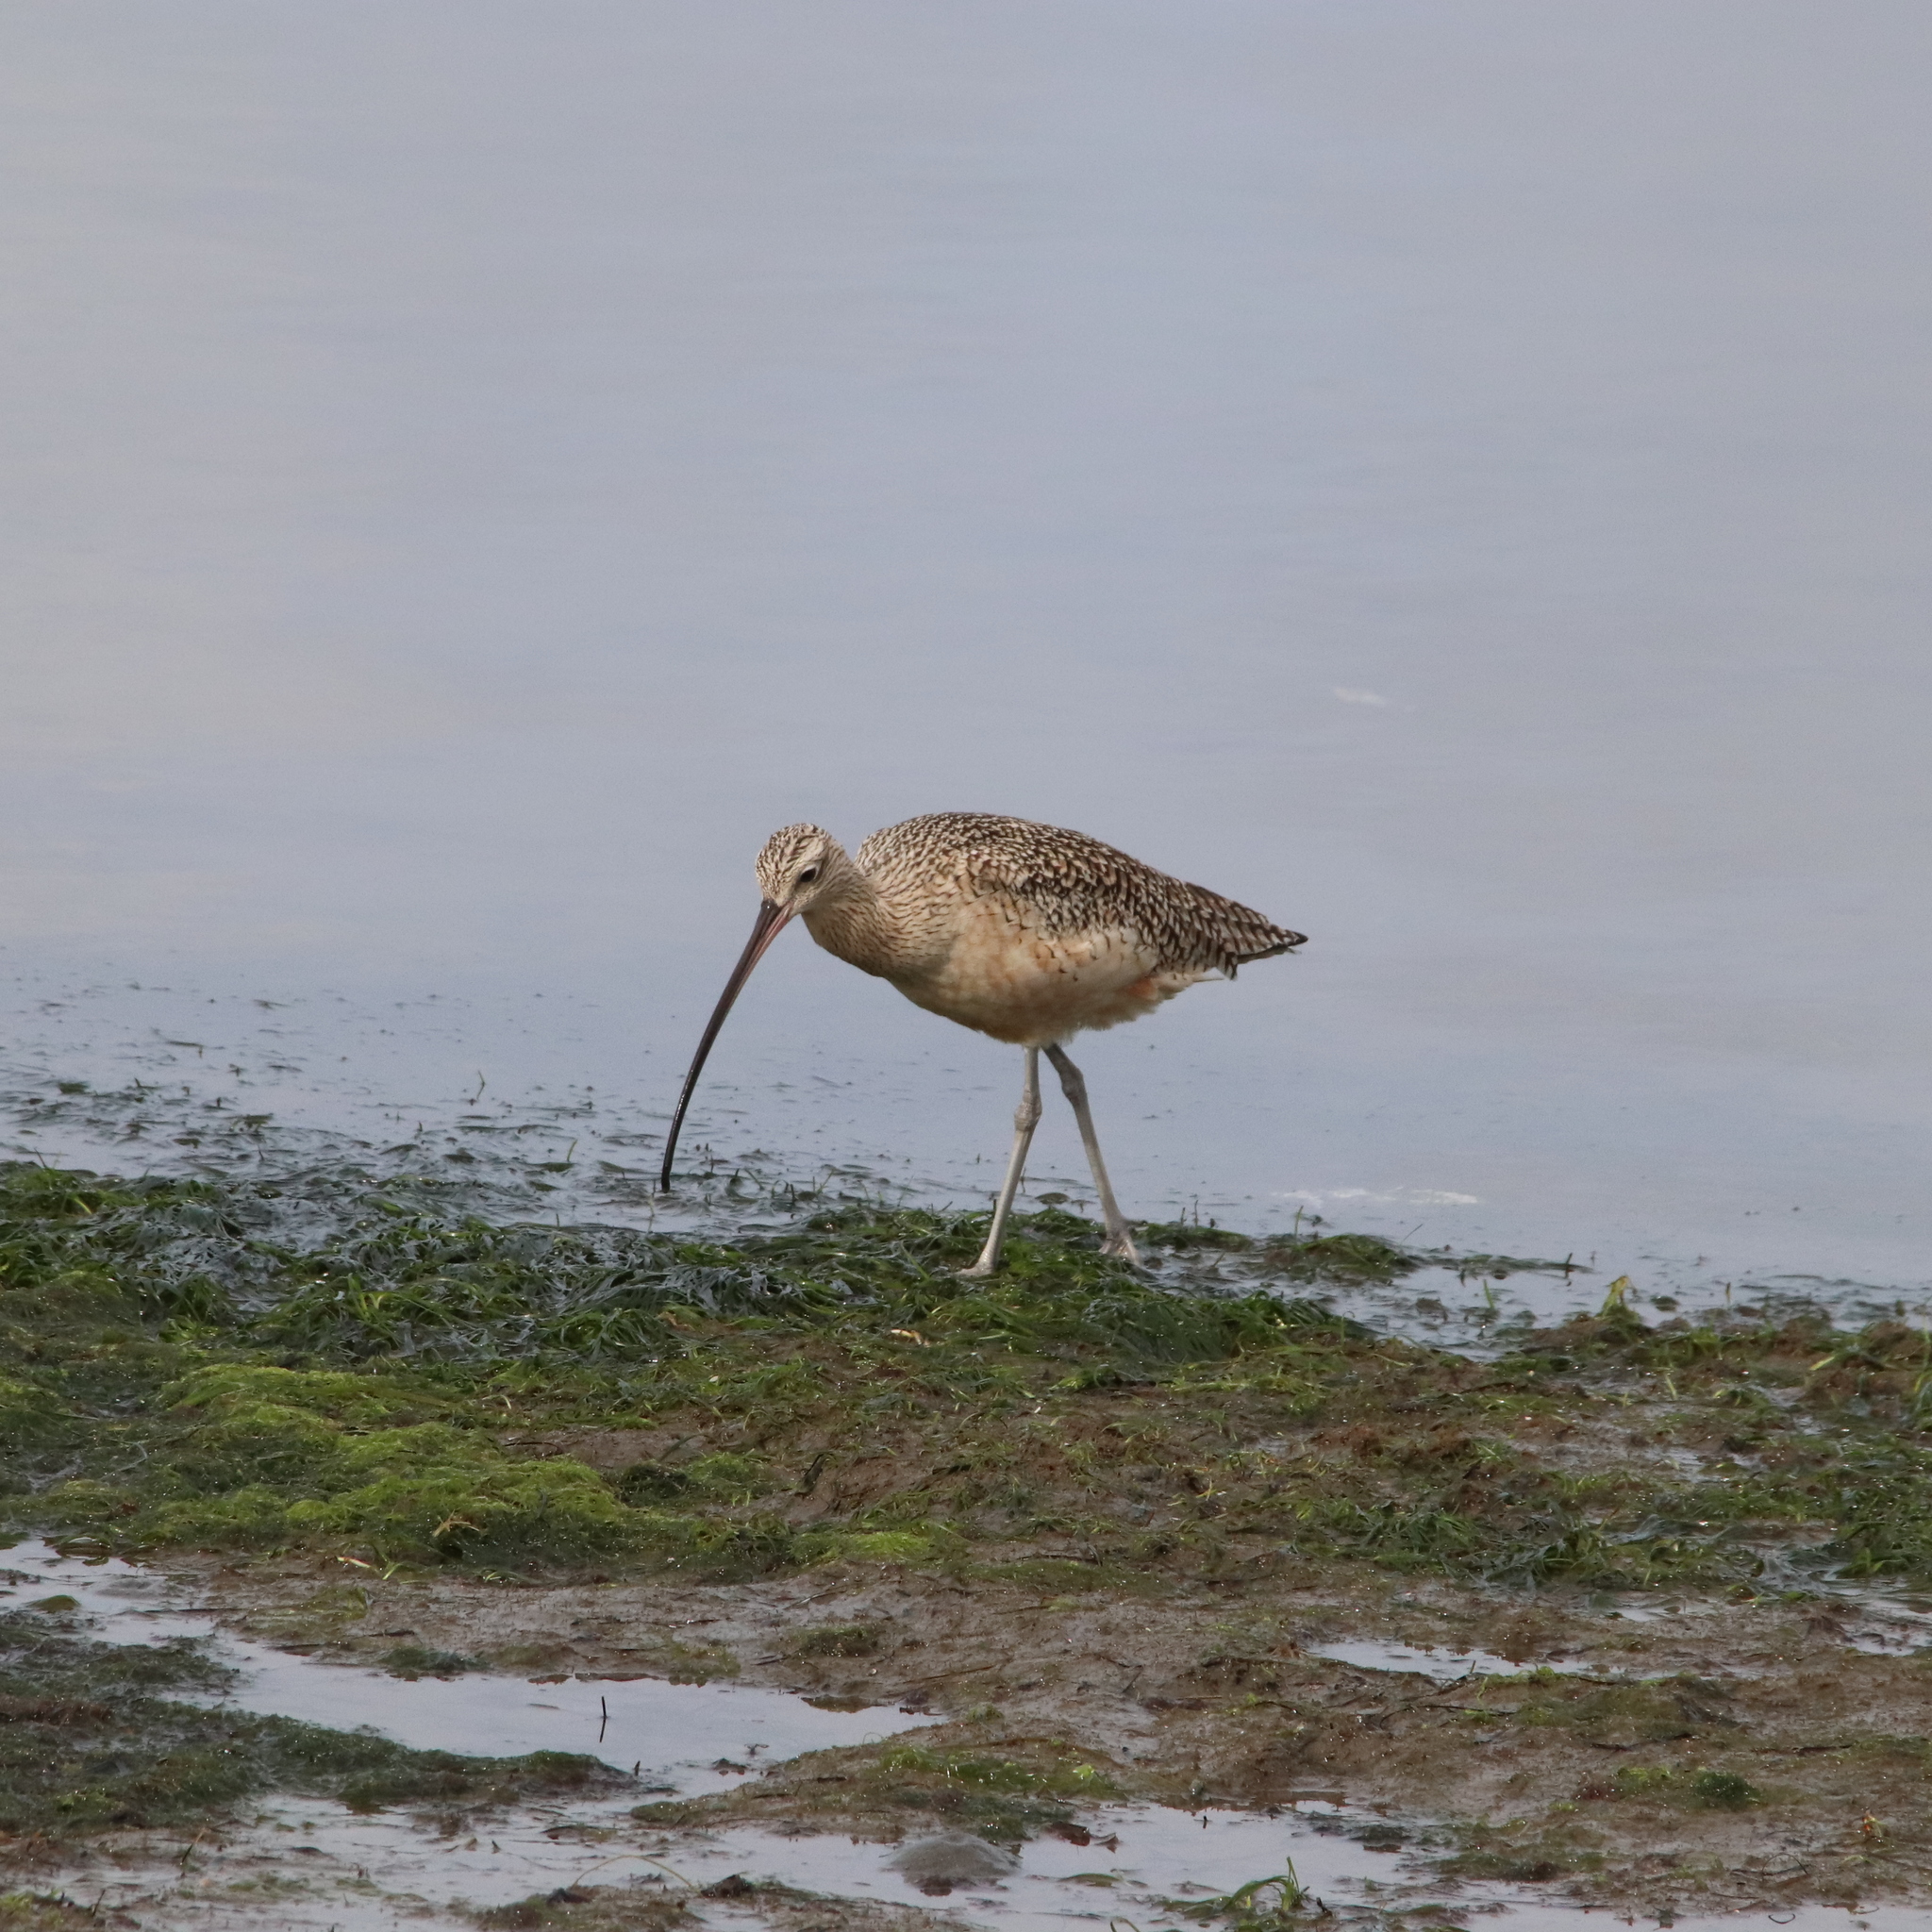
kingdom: Animalia
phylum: Chordata
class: Aves
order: Charadriiformes
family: Scolopacidae
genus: Numenius
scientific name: Numenius americanus
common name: Long-billed curlew
